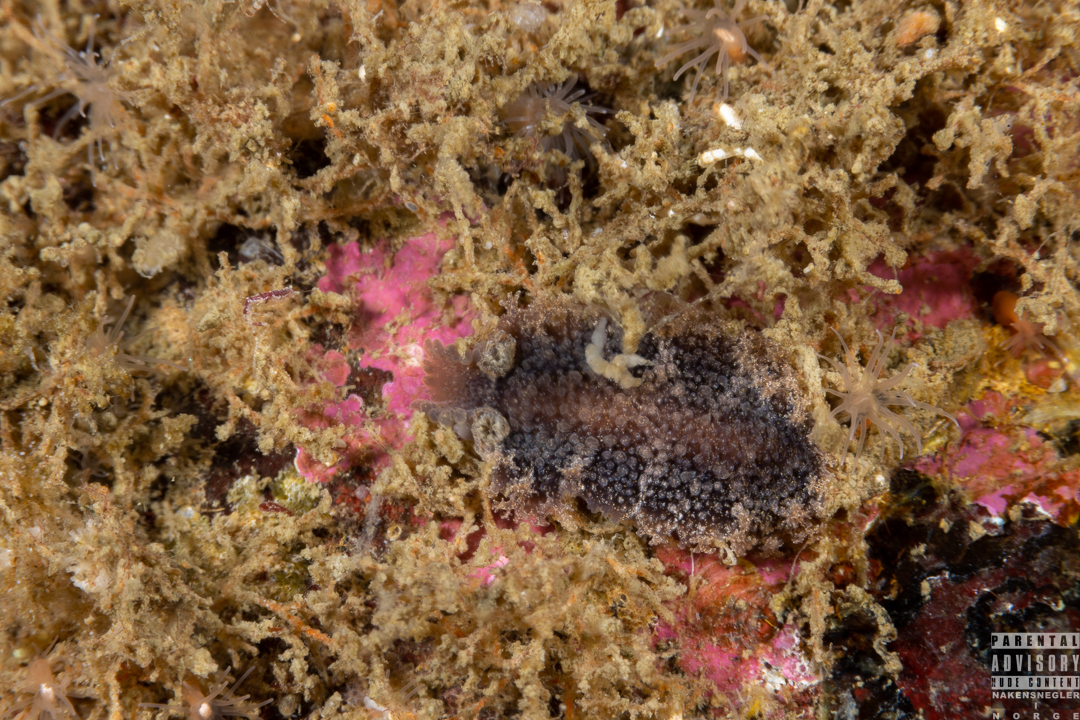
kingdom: Animalia
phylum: Mollusca
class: Gastropoda
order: Nudibranchia
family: Tritoniidae
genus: Tritonia
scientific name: Tritonia hombergii
